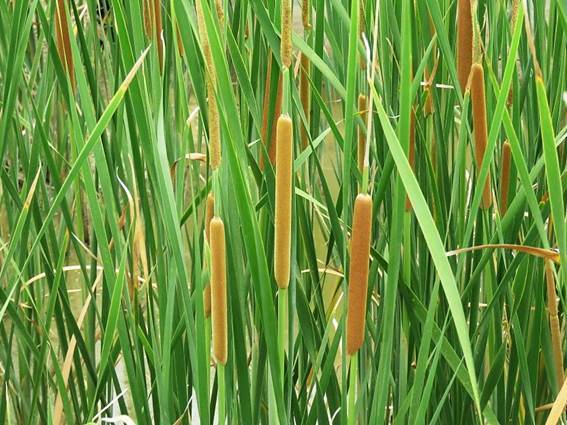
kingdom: Plantae
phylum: Tracheophyta
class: Liliopsida
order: Poales
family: Typhaceae
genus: Typha
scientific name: Typha domingensis
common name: Southern cattail
